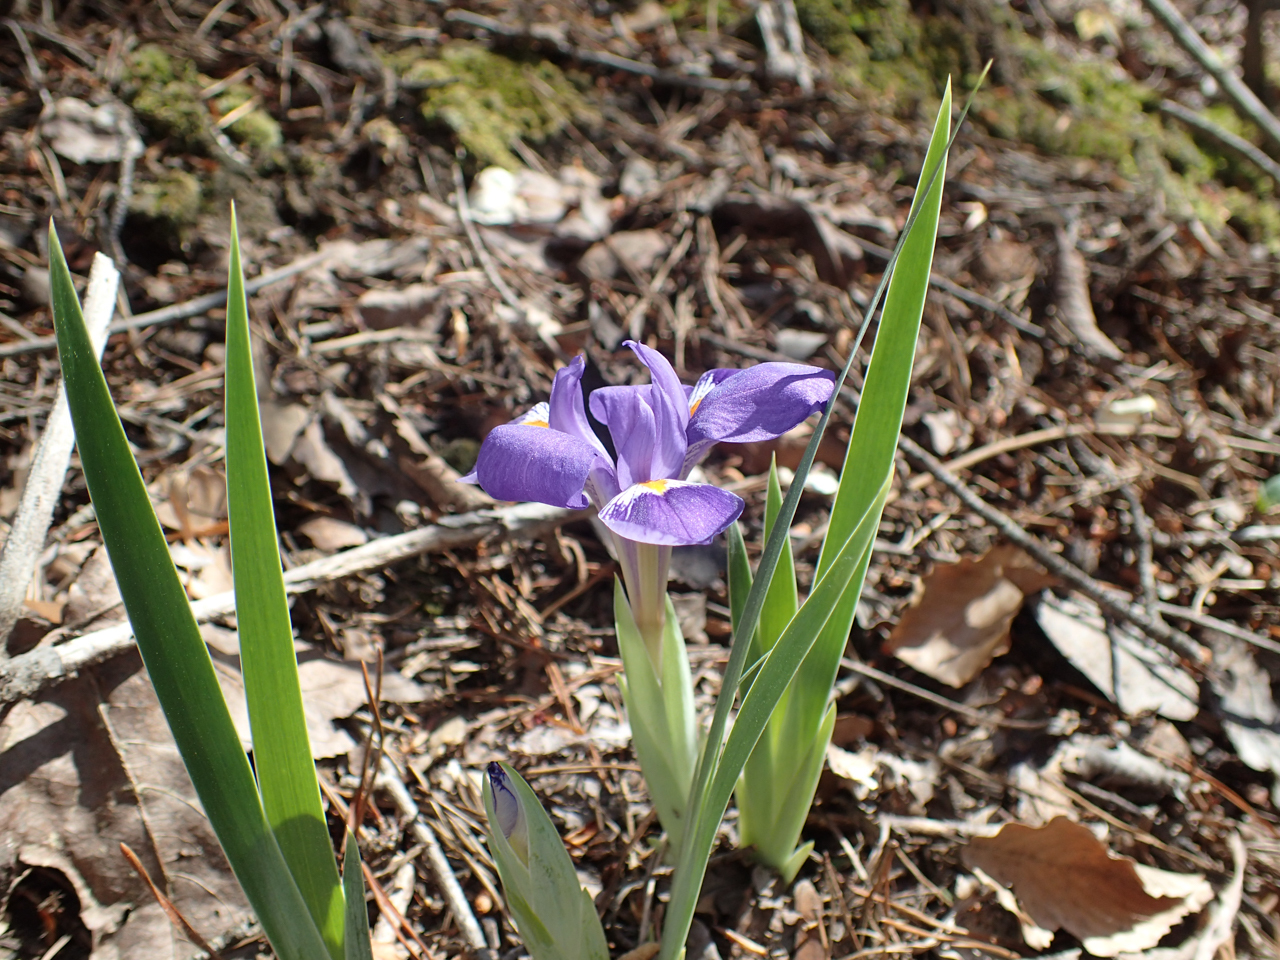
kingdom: Plantae
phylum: Tracheophyta
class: Liliopsida
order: Asparagales
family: Iridaceae
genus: Iris
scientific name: Iris verna
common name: Dwarf iris
